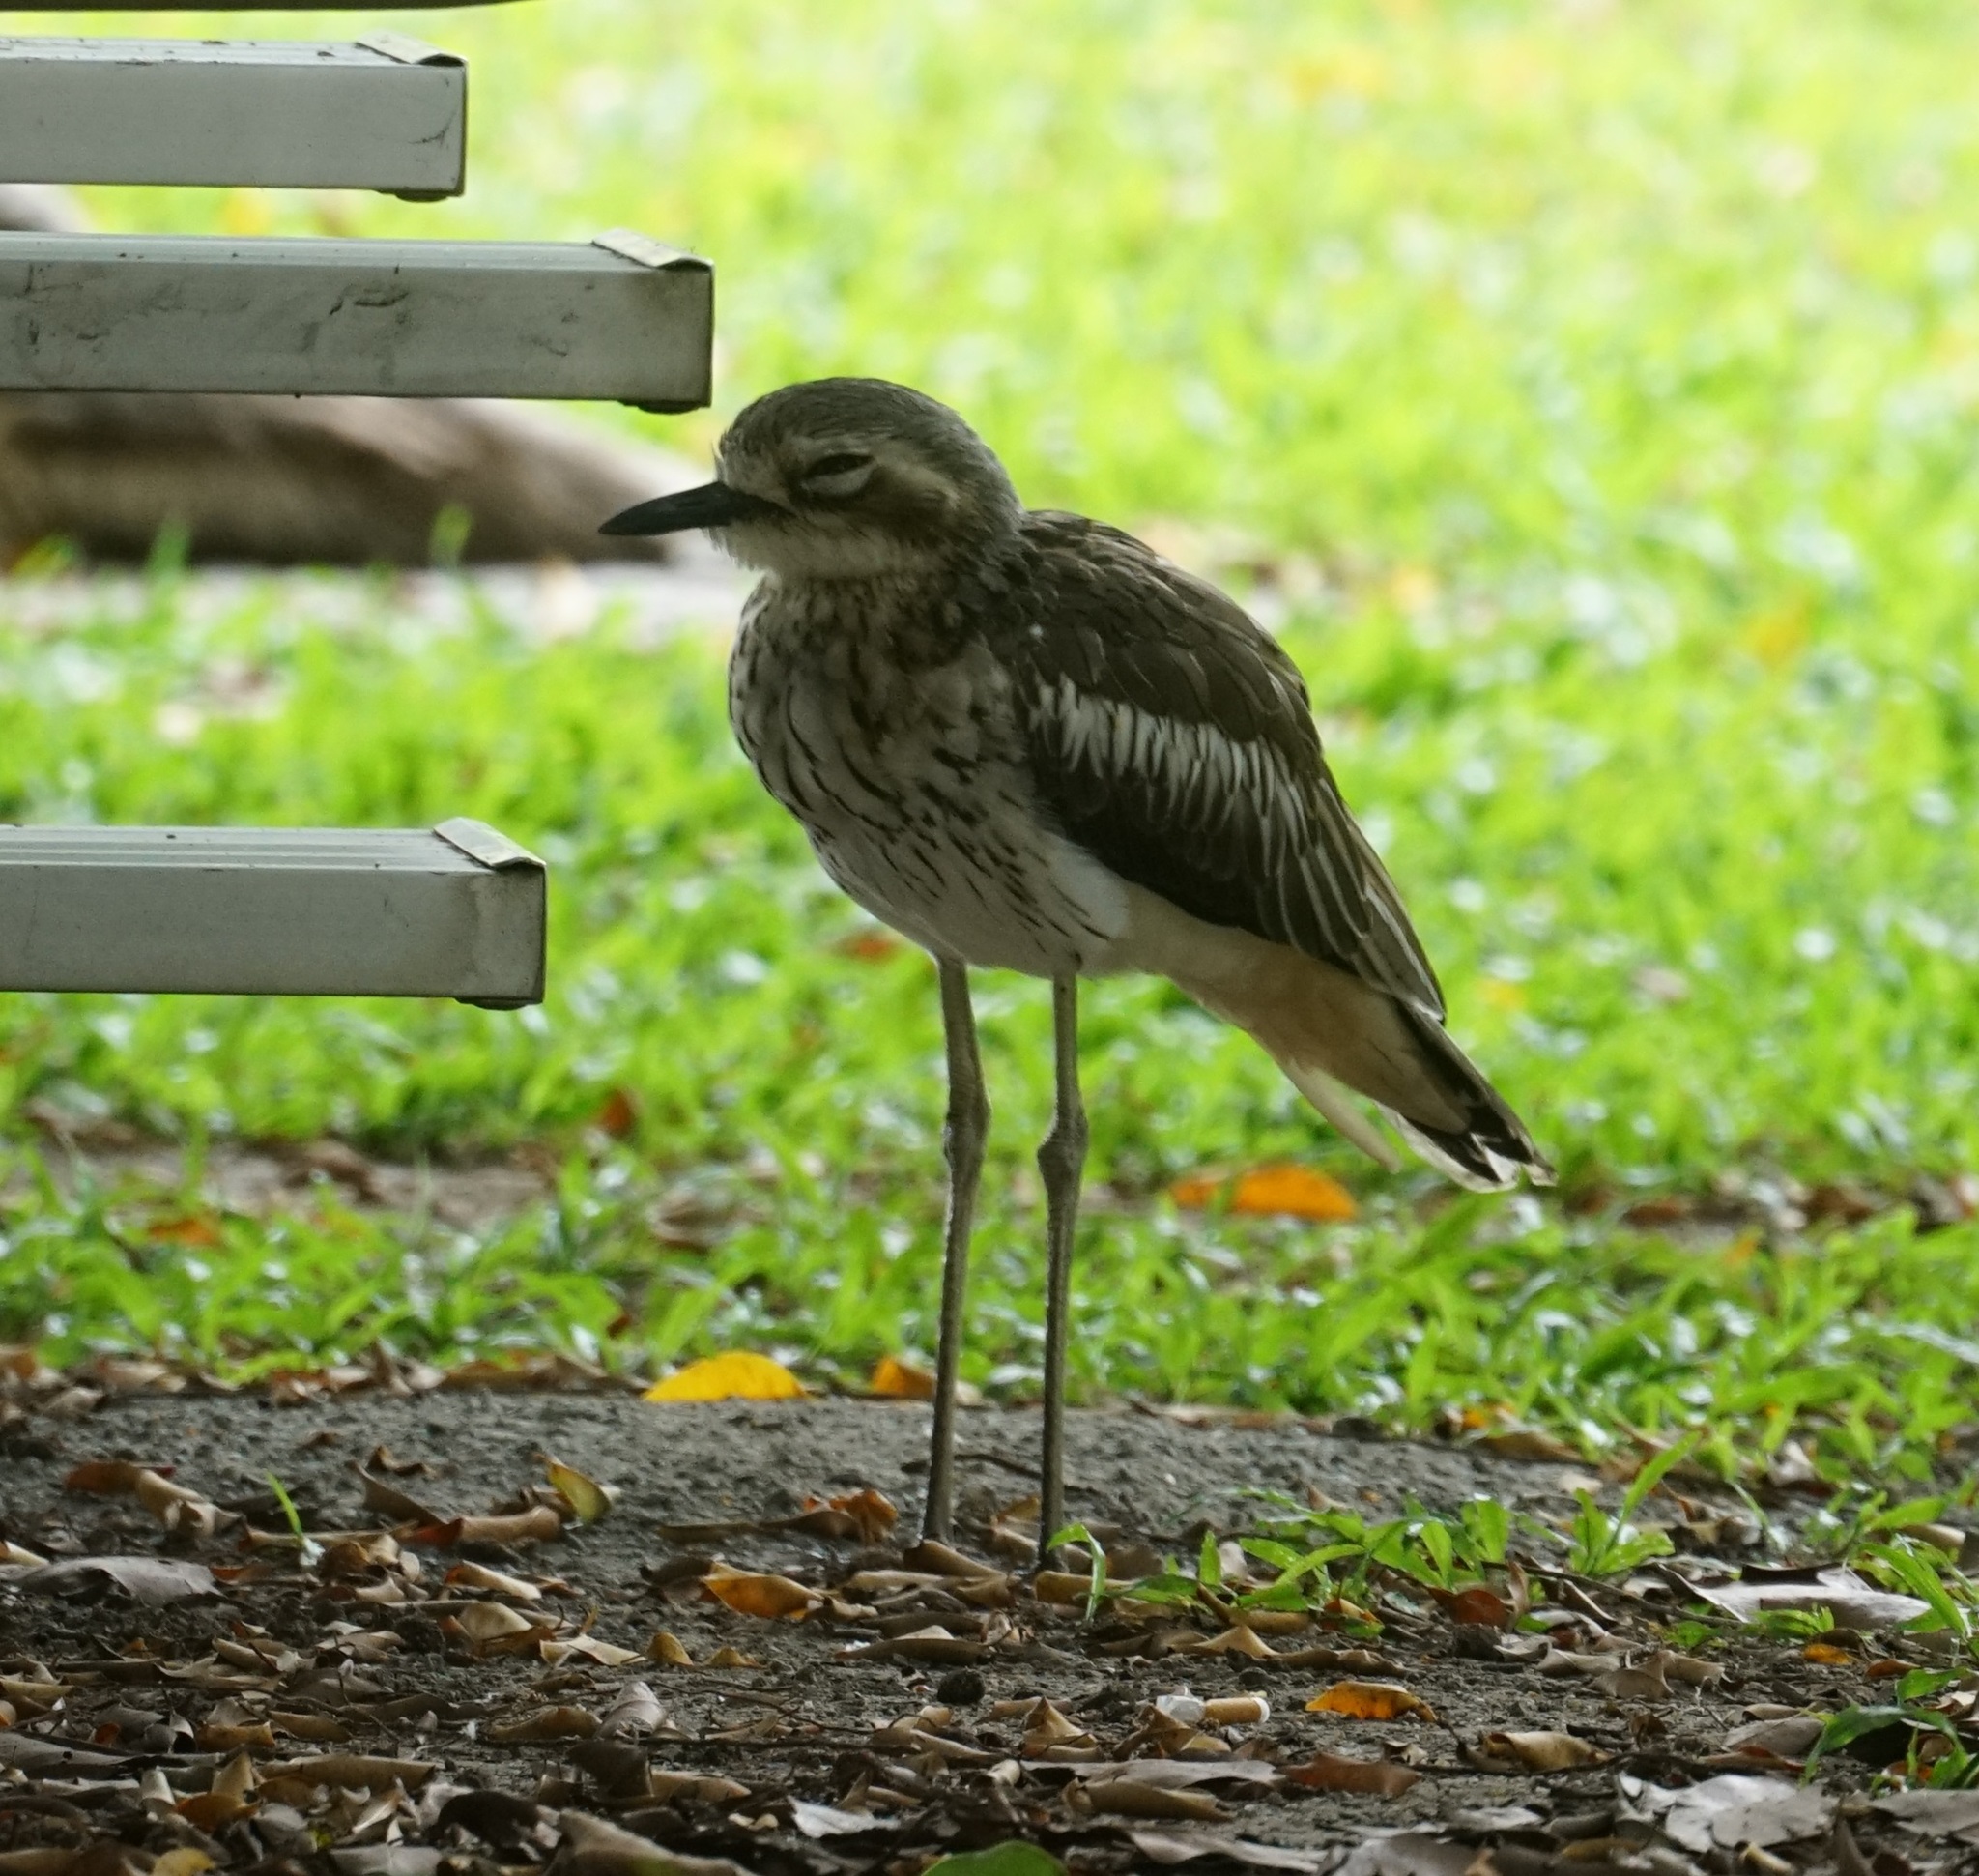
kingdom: Animalia
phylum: Chordata
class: Aves
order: Charadriiformes
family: Burhinidae
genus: Burhinus
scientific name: Burhinus grallarius
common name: Bush stone-curlew
